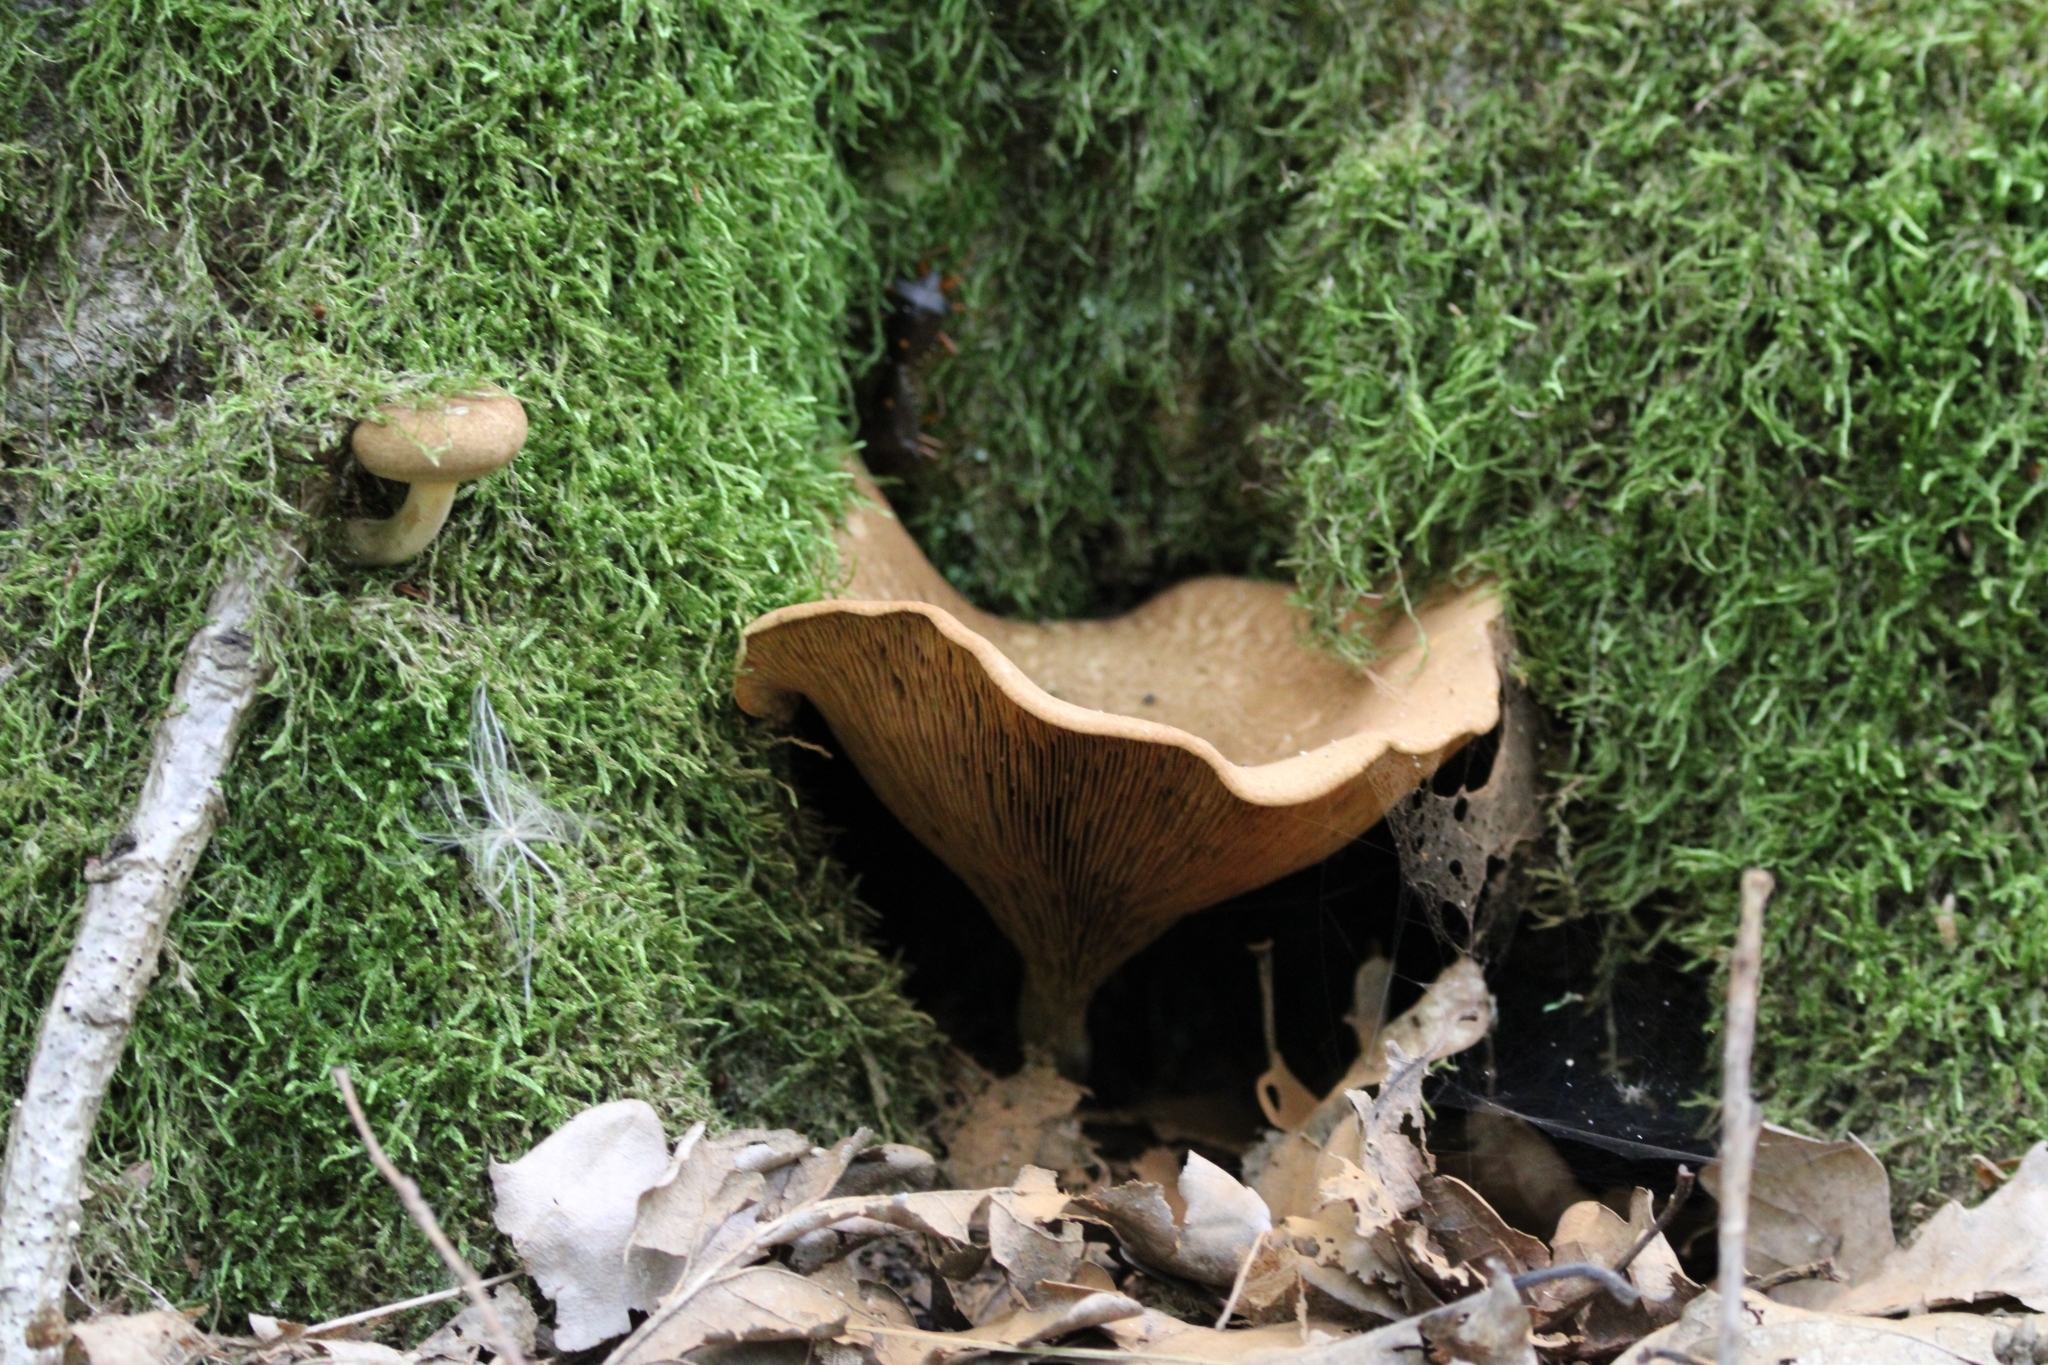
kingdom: Fungi
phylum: Basidiomycota
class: Agaricomycetes
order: Boletales
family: Paxillaceae
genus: Paxillus
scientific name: Paxillus involutus
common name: Brown roll rim
